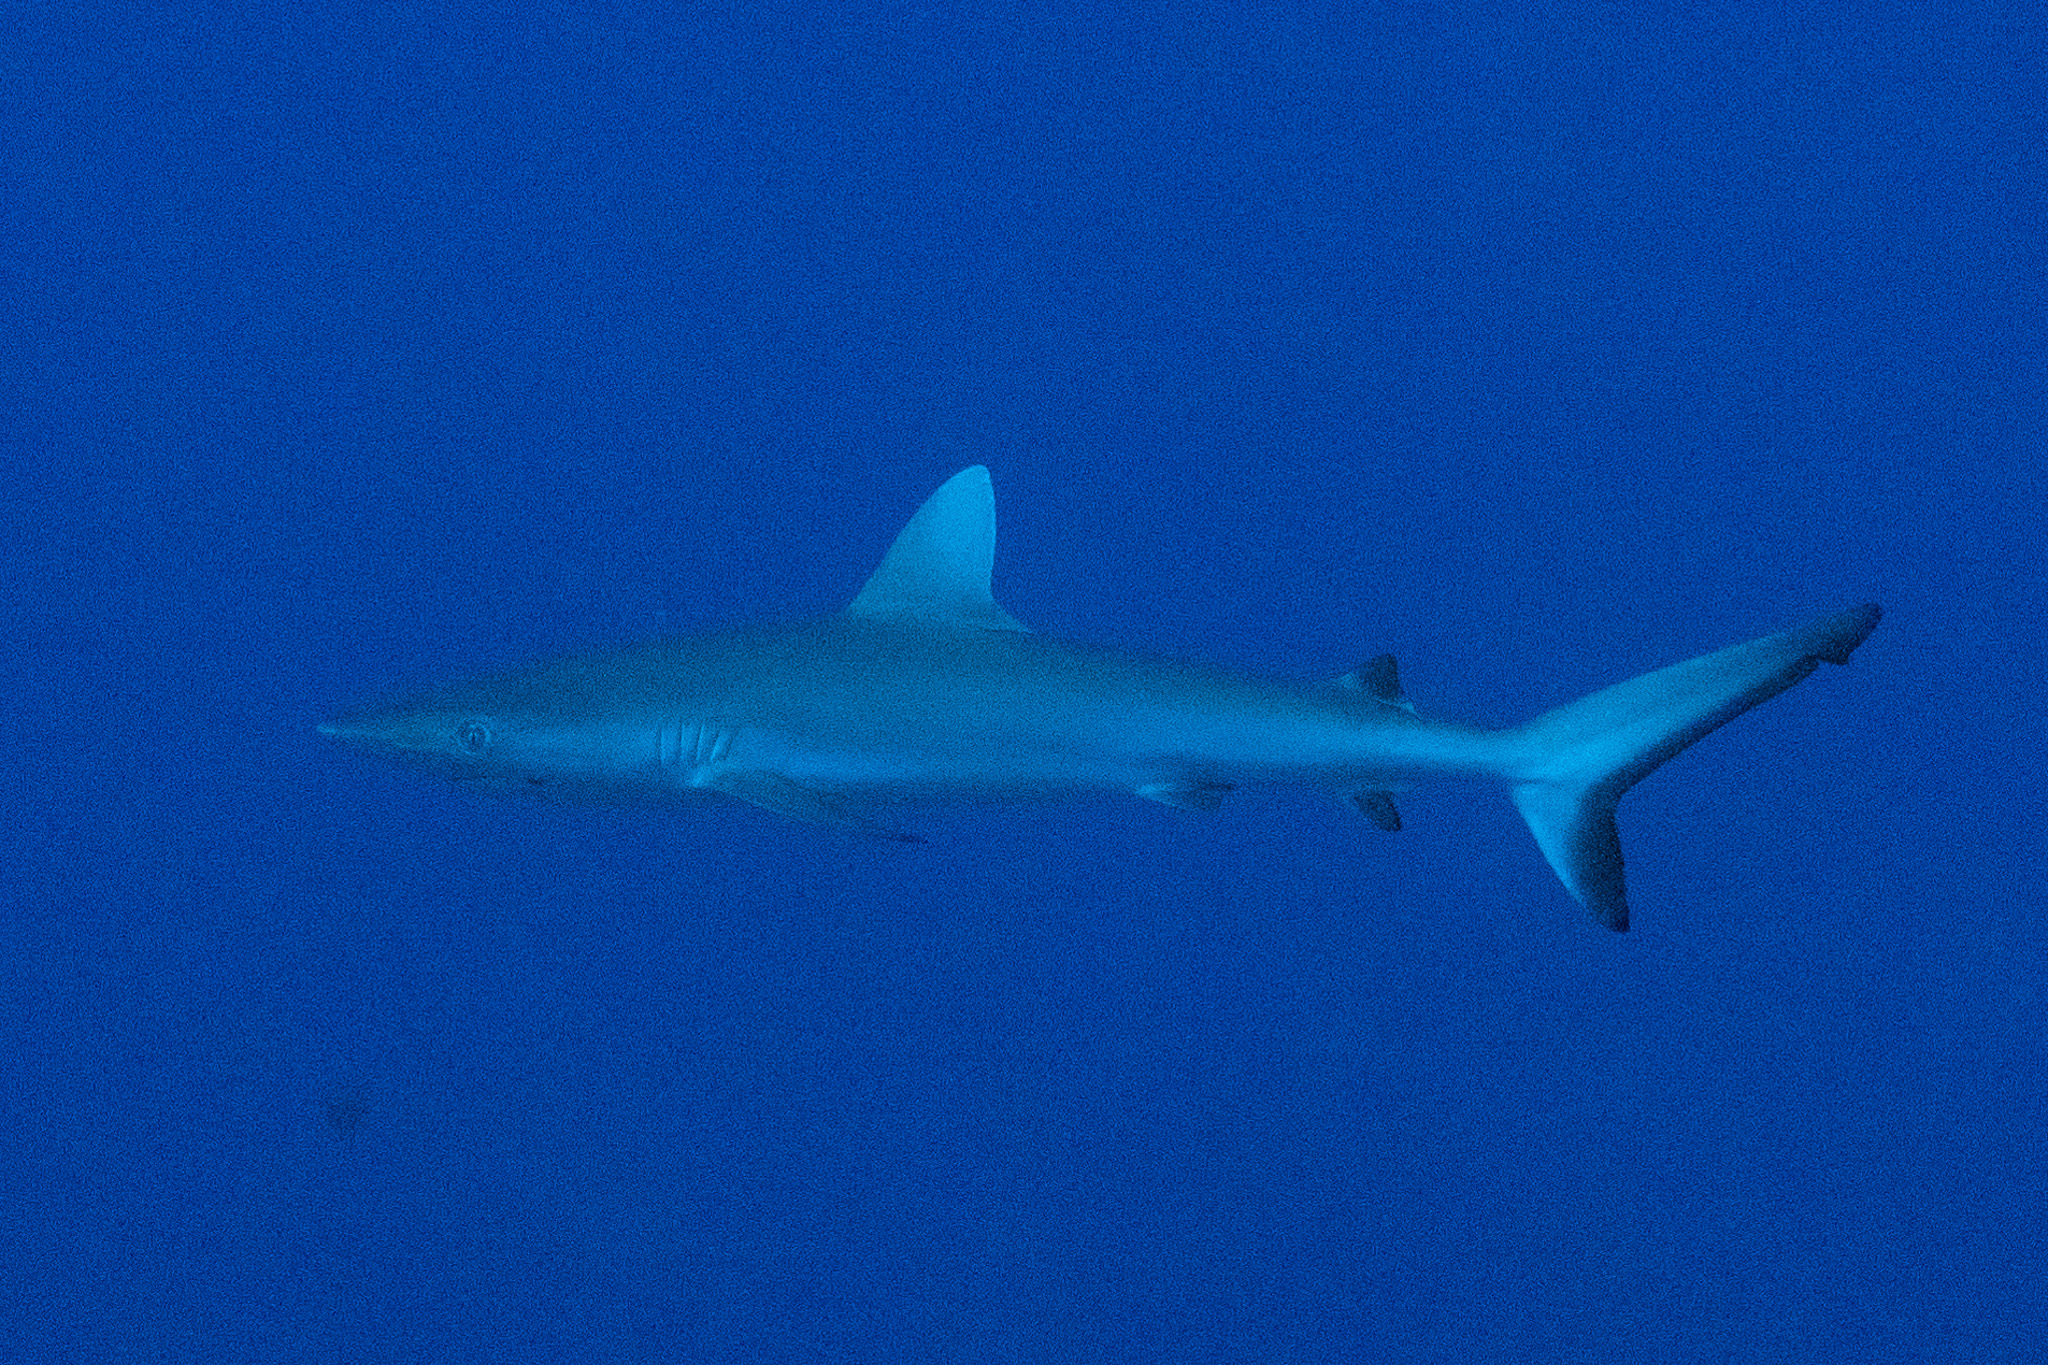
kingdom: Animalia
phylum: Chordata
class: Elasmobranchii
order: Carcharhiniformes
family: Carcharhinidae
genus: Carcharhinus
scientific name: Carcharhinus amblyrhynchos
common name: Grey reef shark
